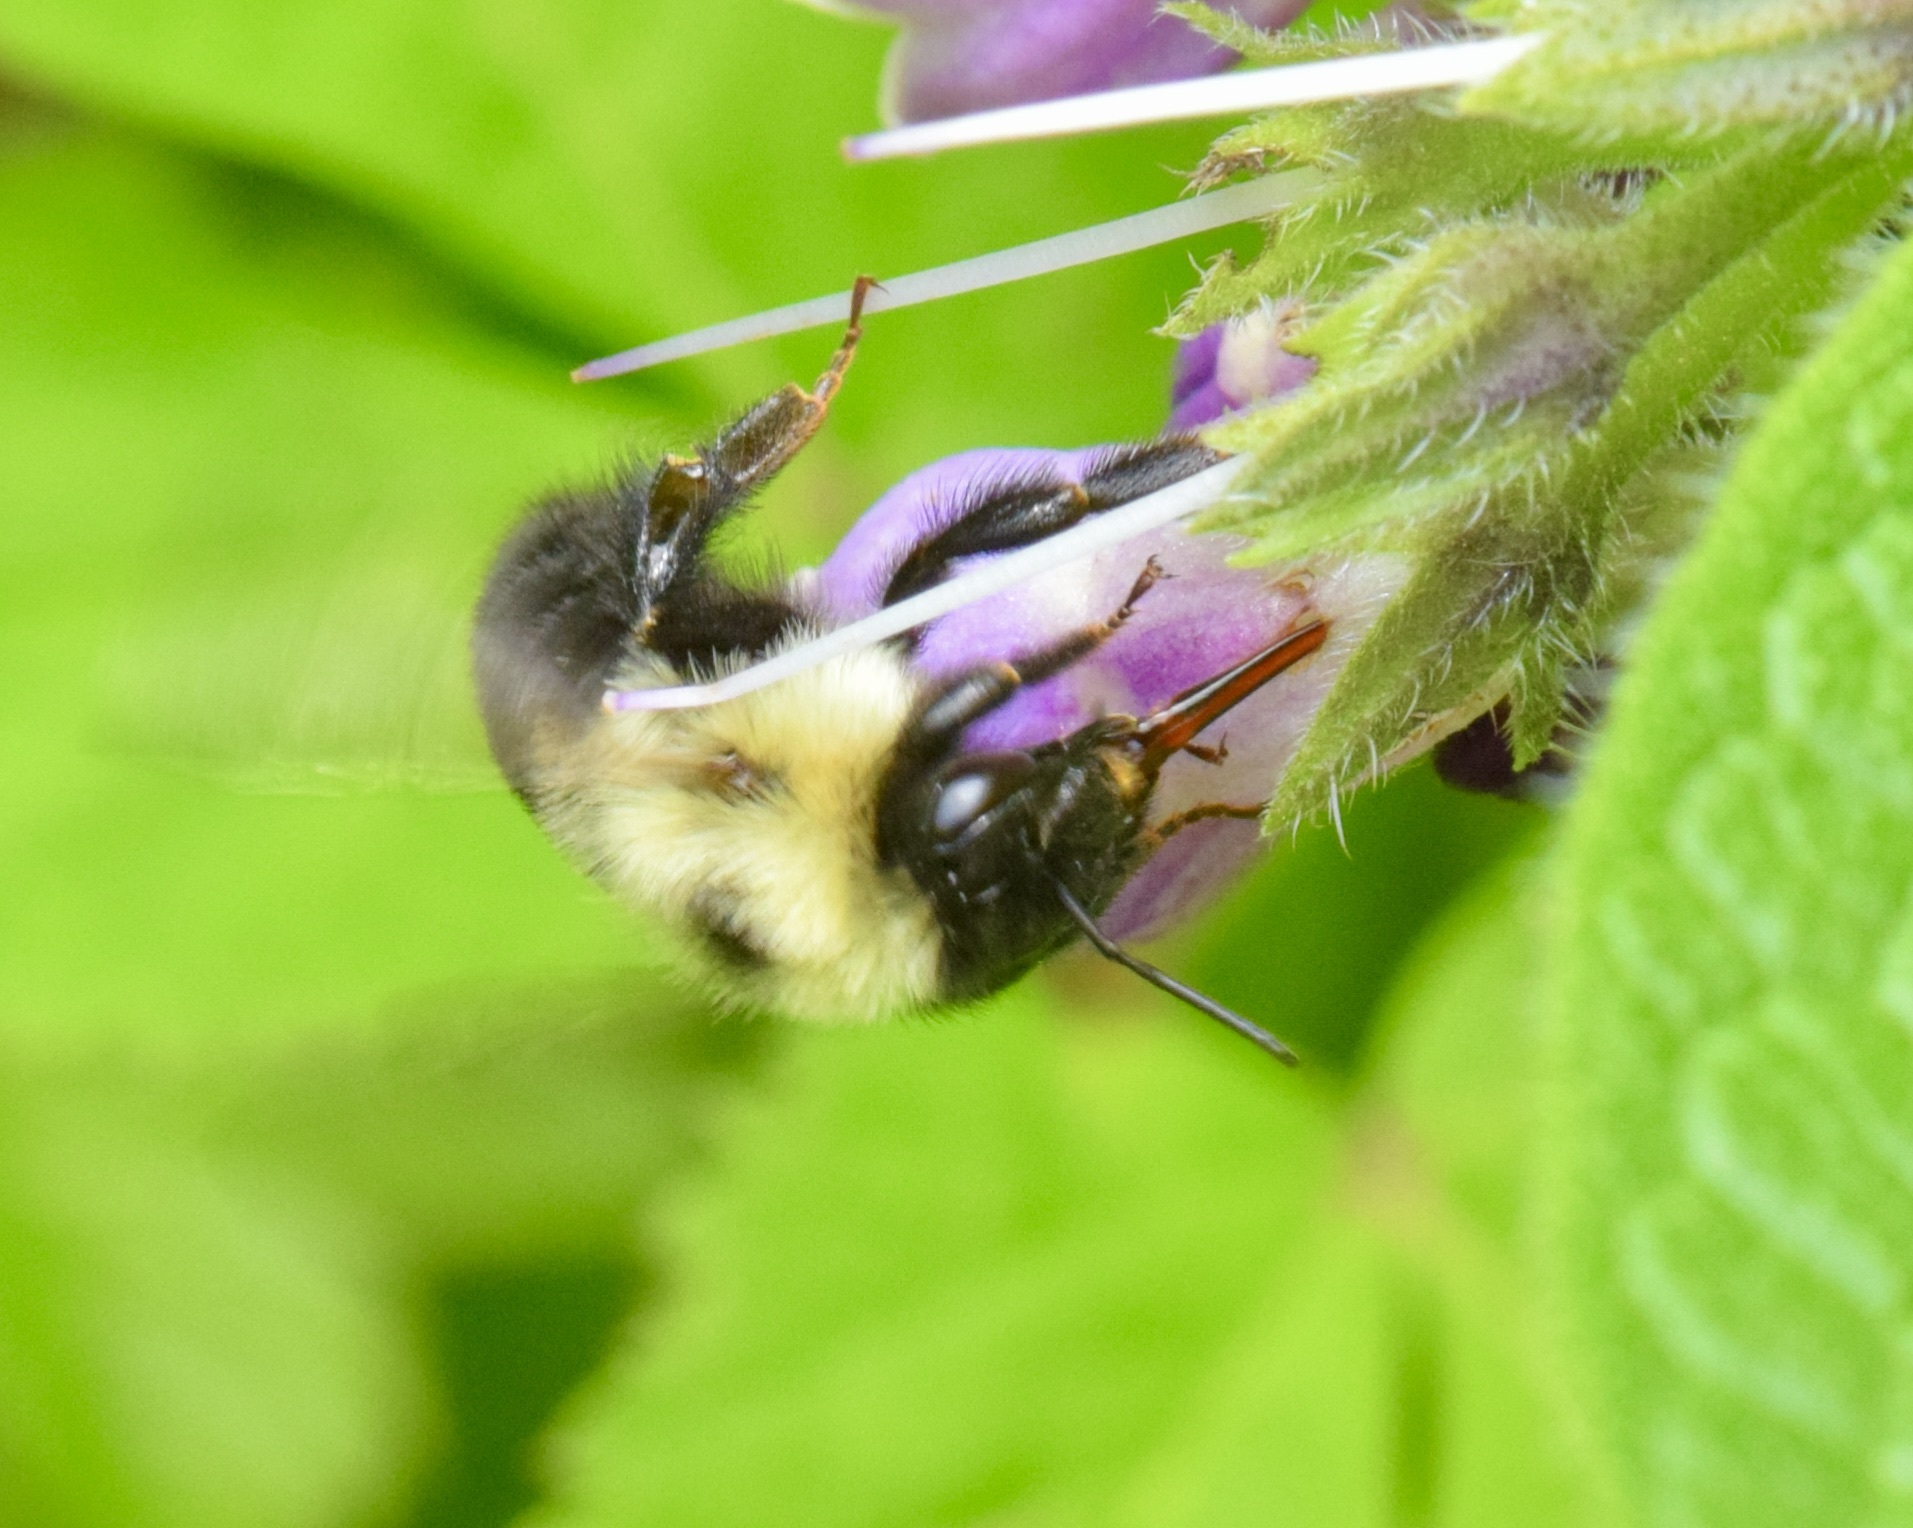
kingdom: Animalia
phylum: Arthropoda
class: Insecta
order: Hymenoptera
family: Apidae
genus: Bombus
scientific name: Bombus bimaculatus
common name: Two-spotted bumble bee
